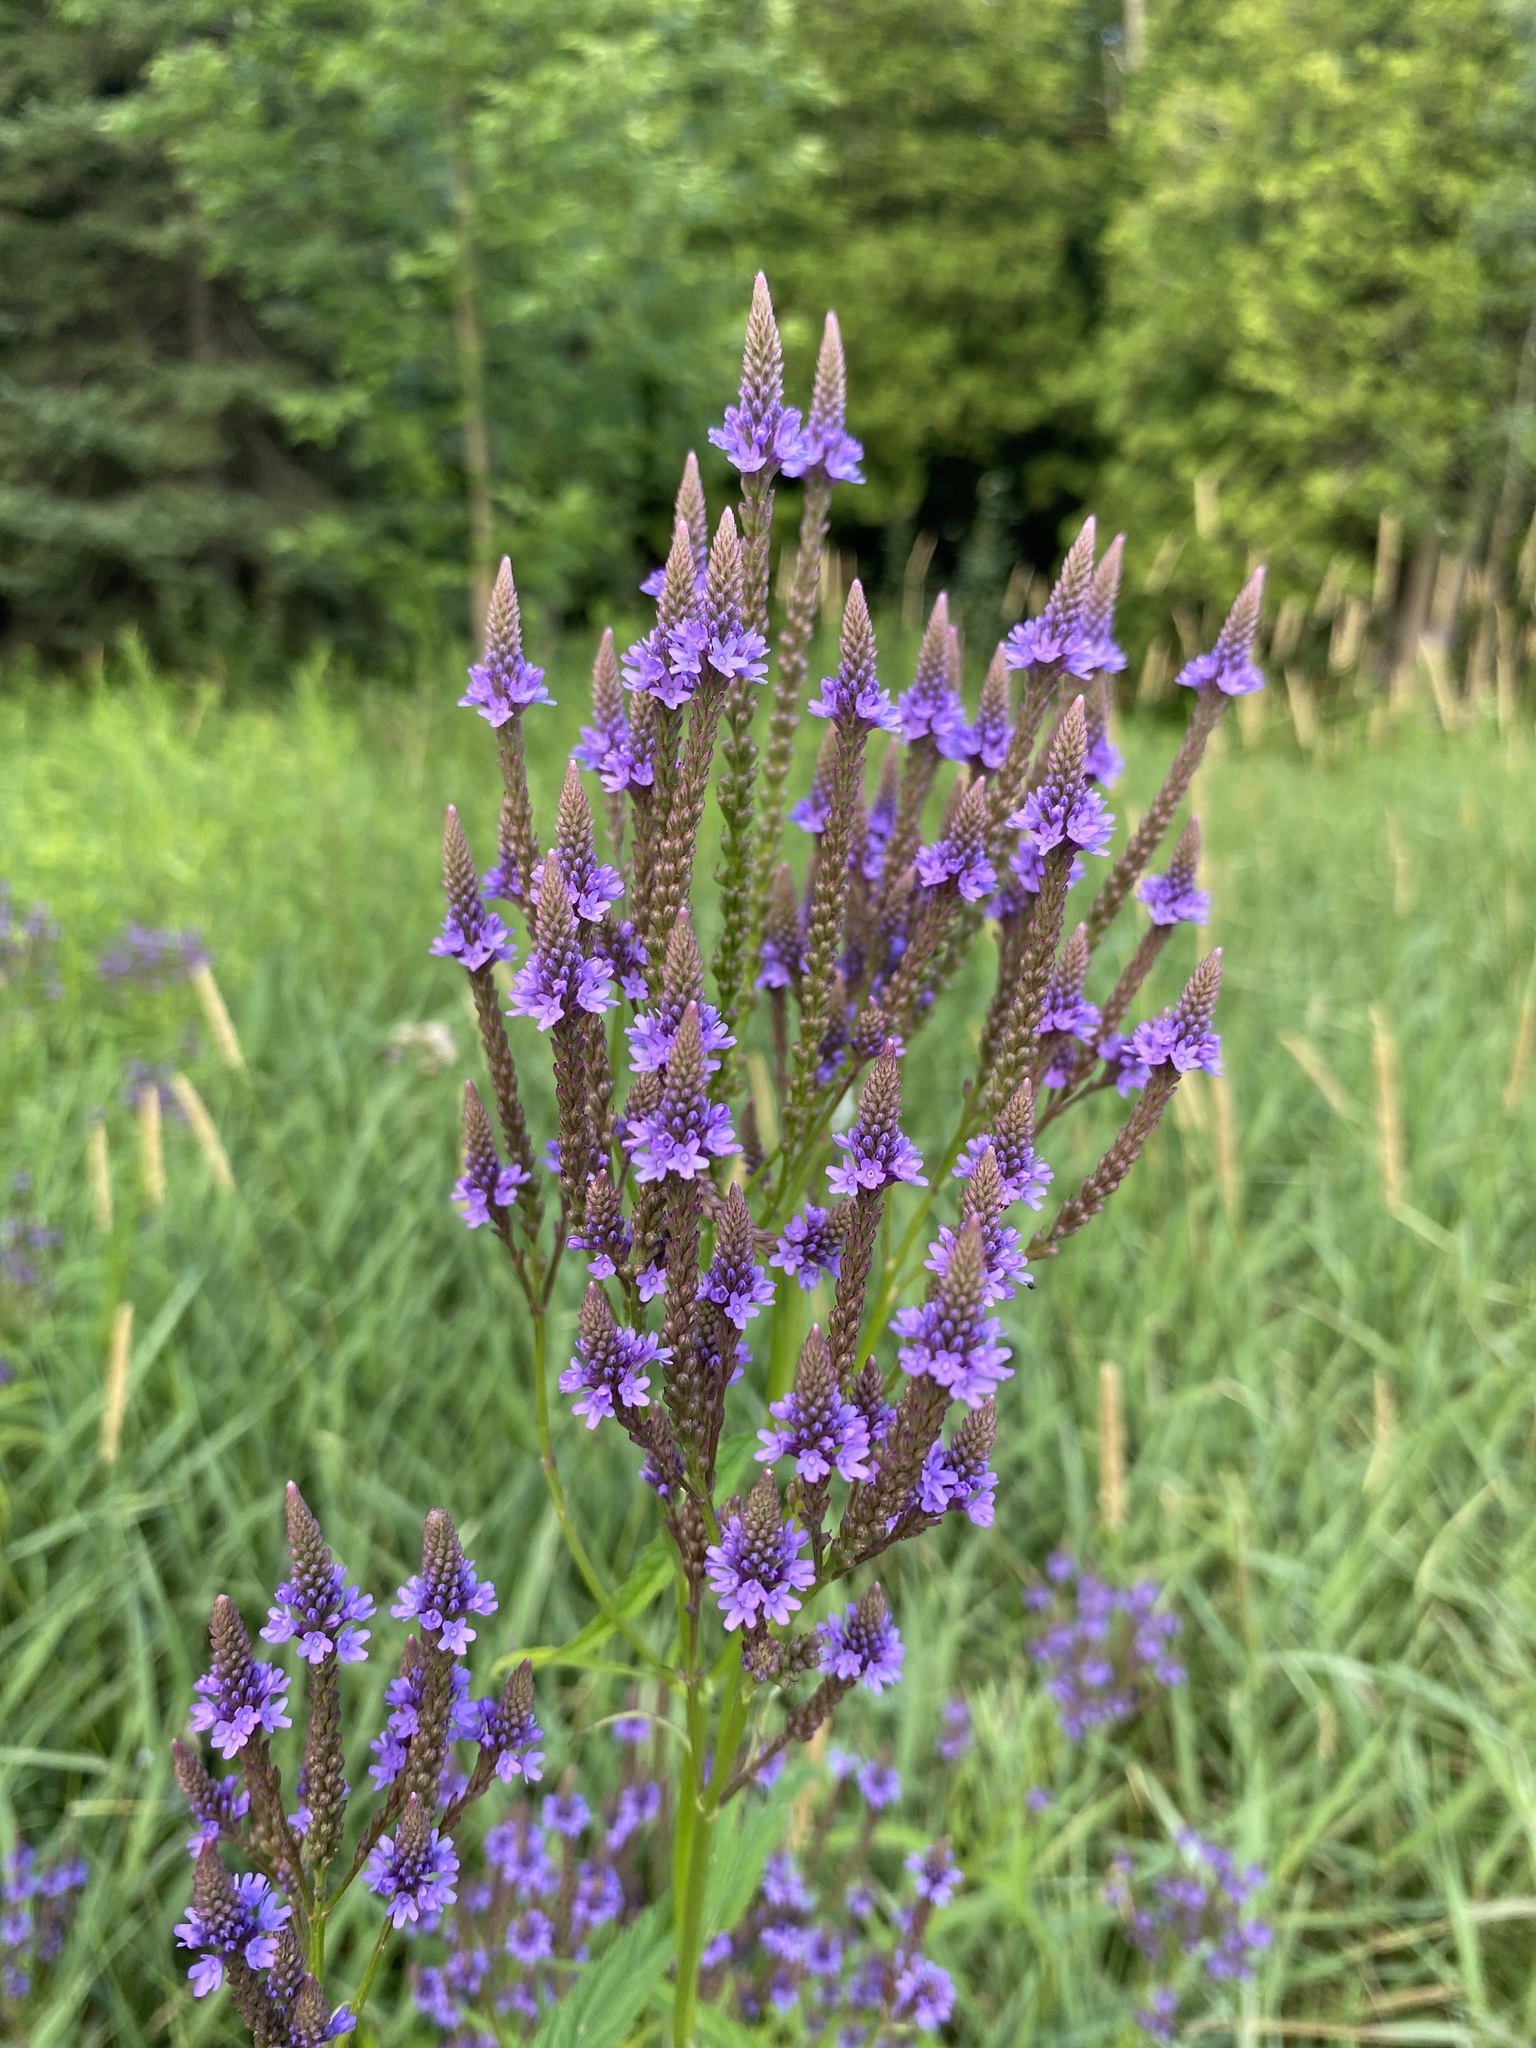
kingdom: Plantae
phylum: Tracheophyta
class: Magnoliopsida
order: Lamiales
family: Verbenaceae
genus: Verbena
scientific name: Verbena hastata
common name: American blue vervain
